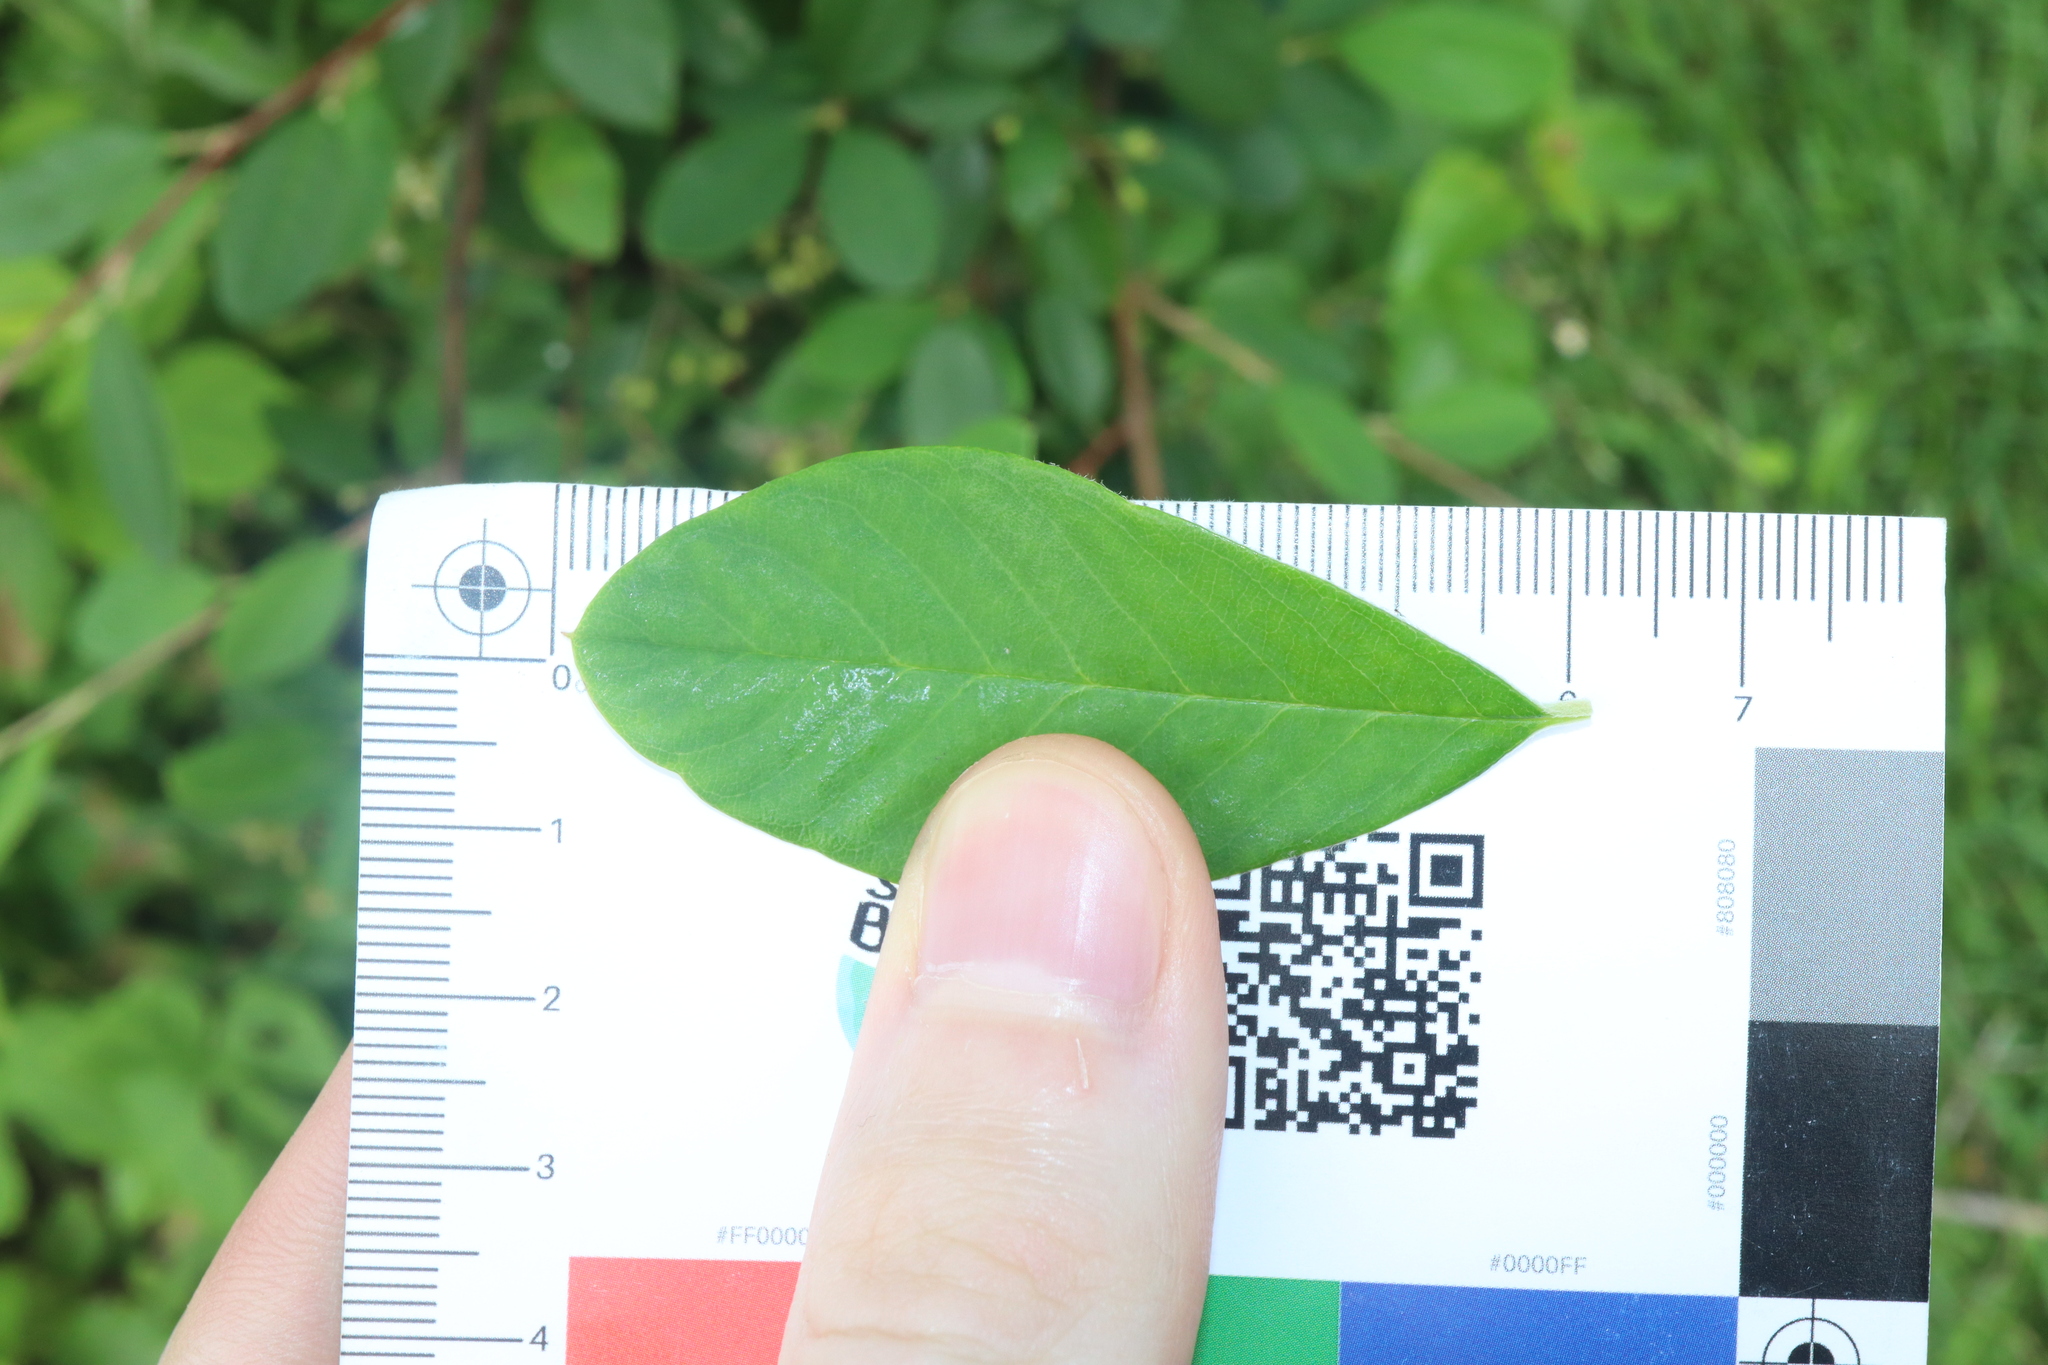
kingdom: Plantae
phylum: Tracheophyta
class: Magnoliopsida
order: Rosales
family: Rosaceae
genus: Cotoneaster
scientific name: Cotoneaster glaucophyllus
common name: Glaucous cotoneaster
